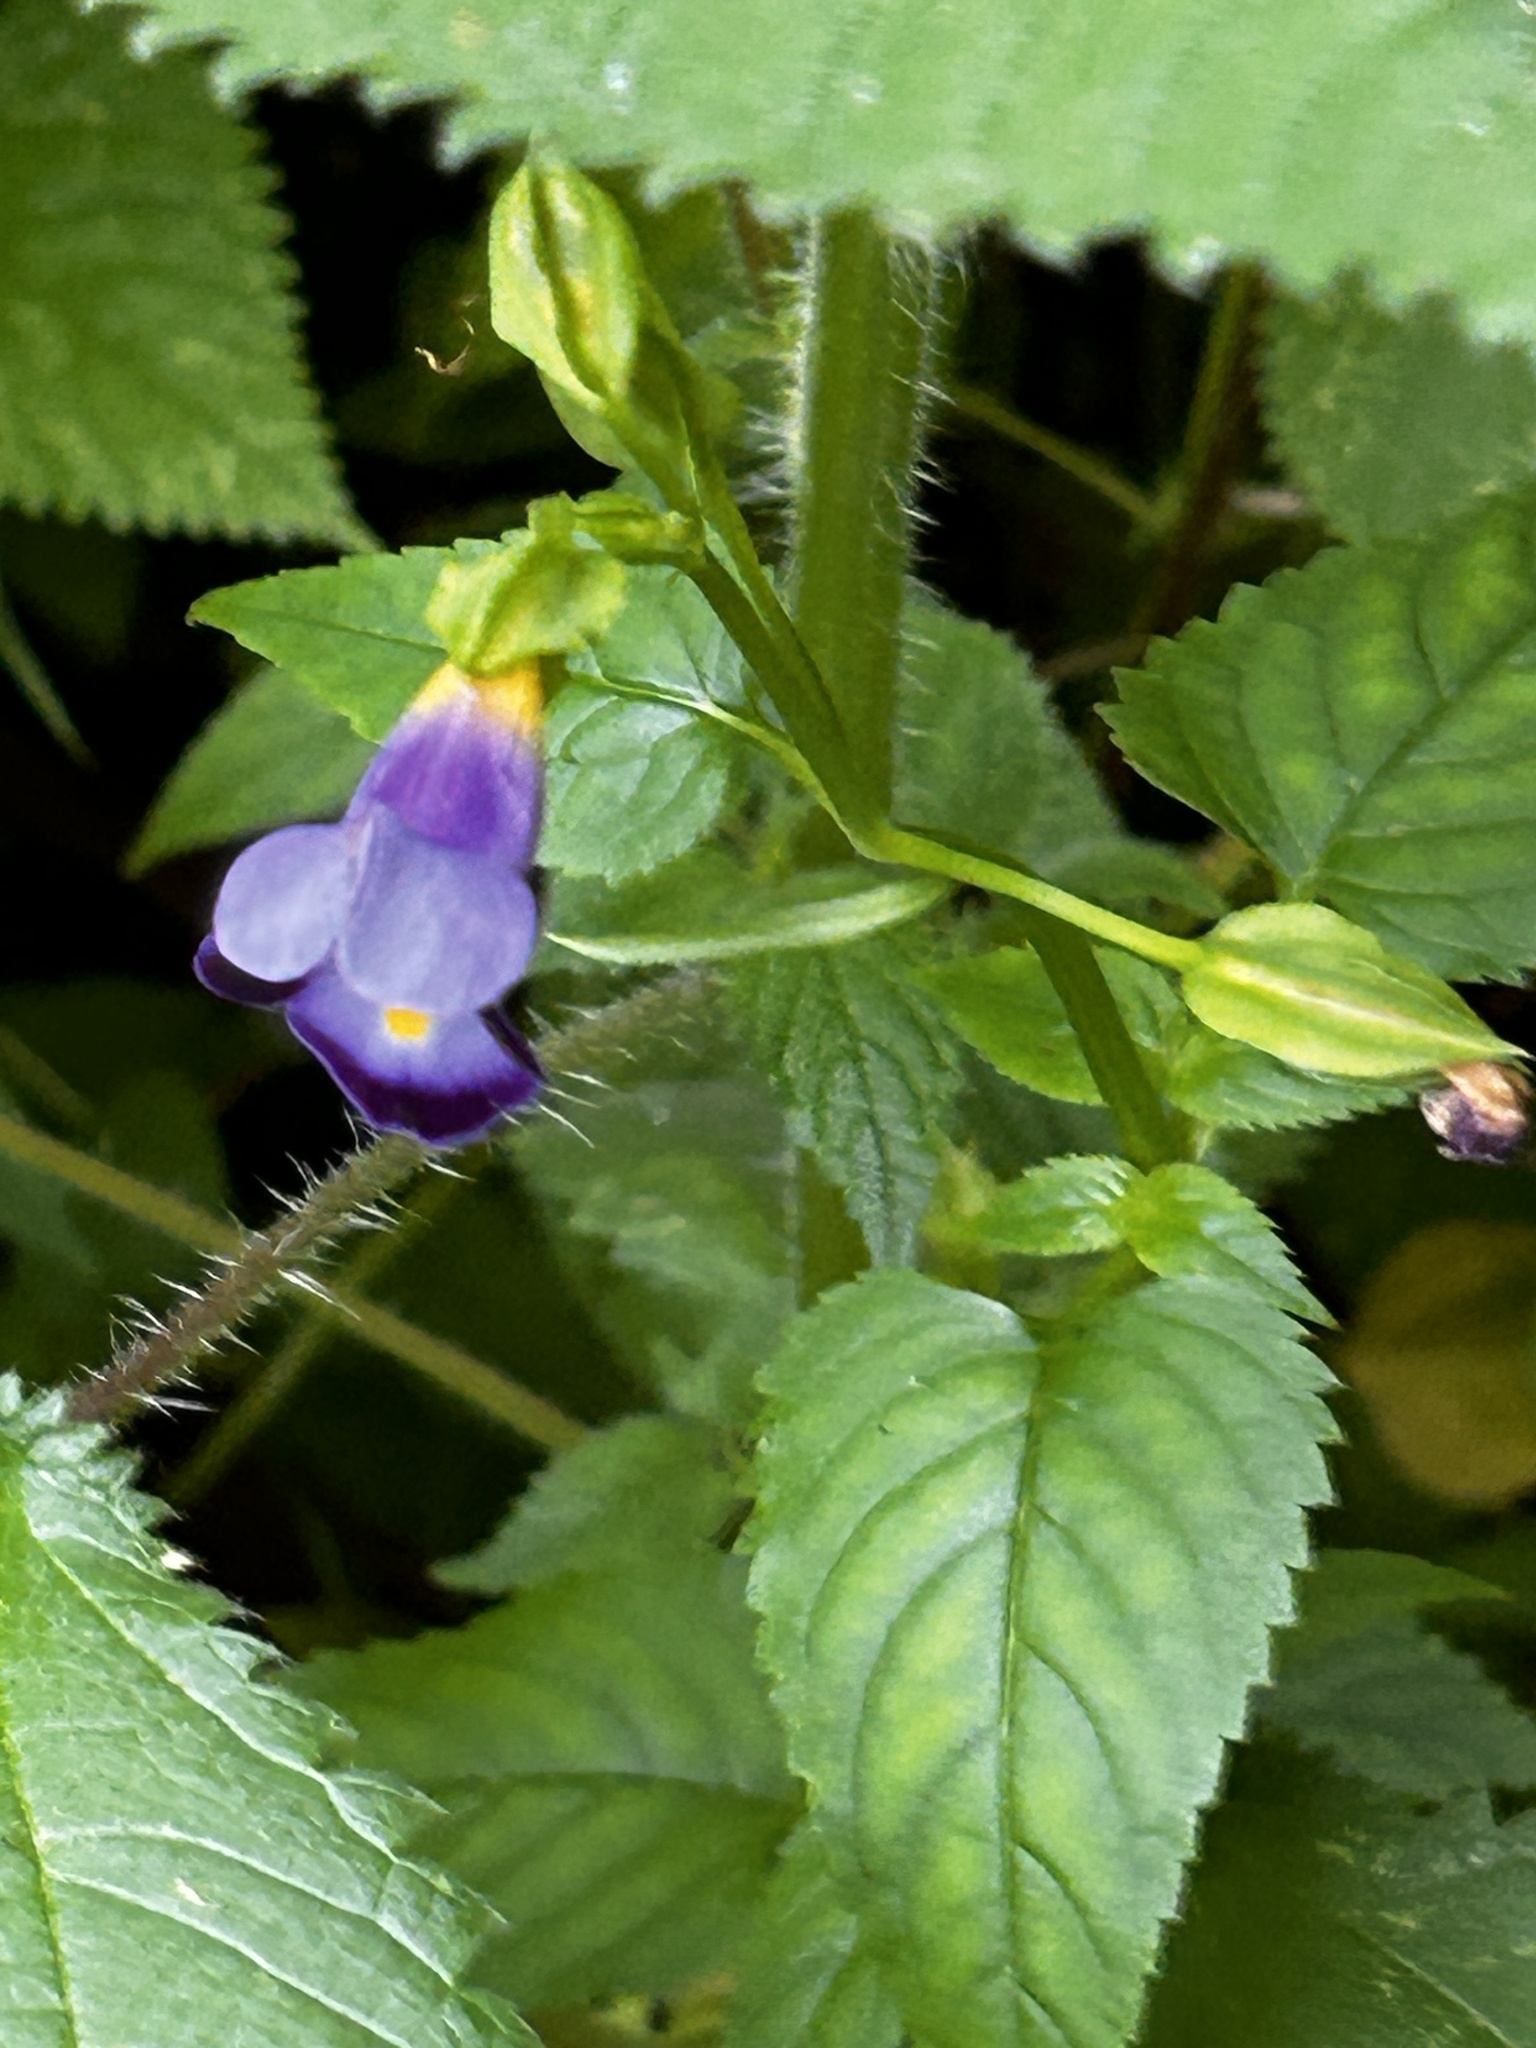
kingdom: Plantae
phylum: Tracheophyta
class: Magnoliopsida
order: Lamiales
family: Linderniaceae
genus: Torenia
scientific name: Torenia fournieri
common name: Bluewings
